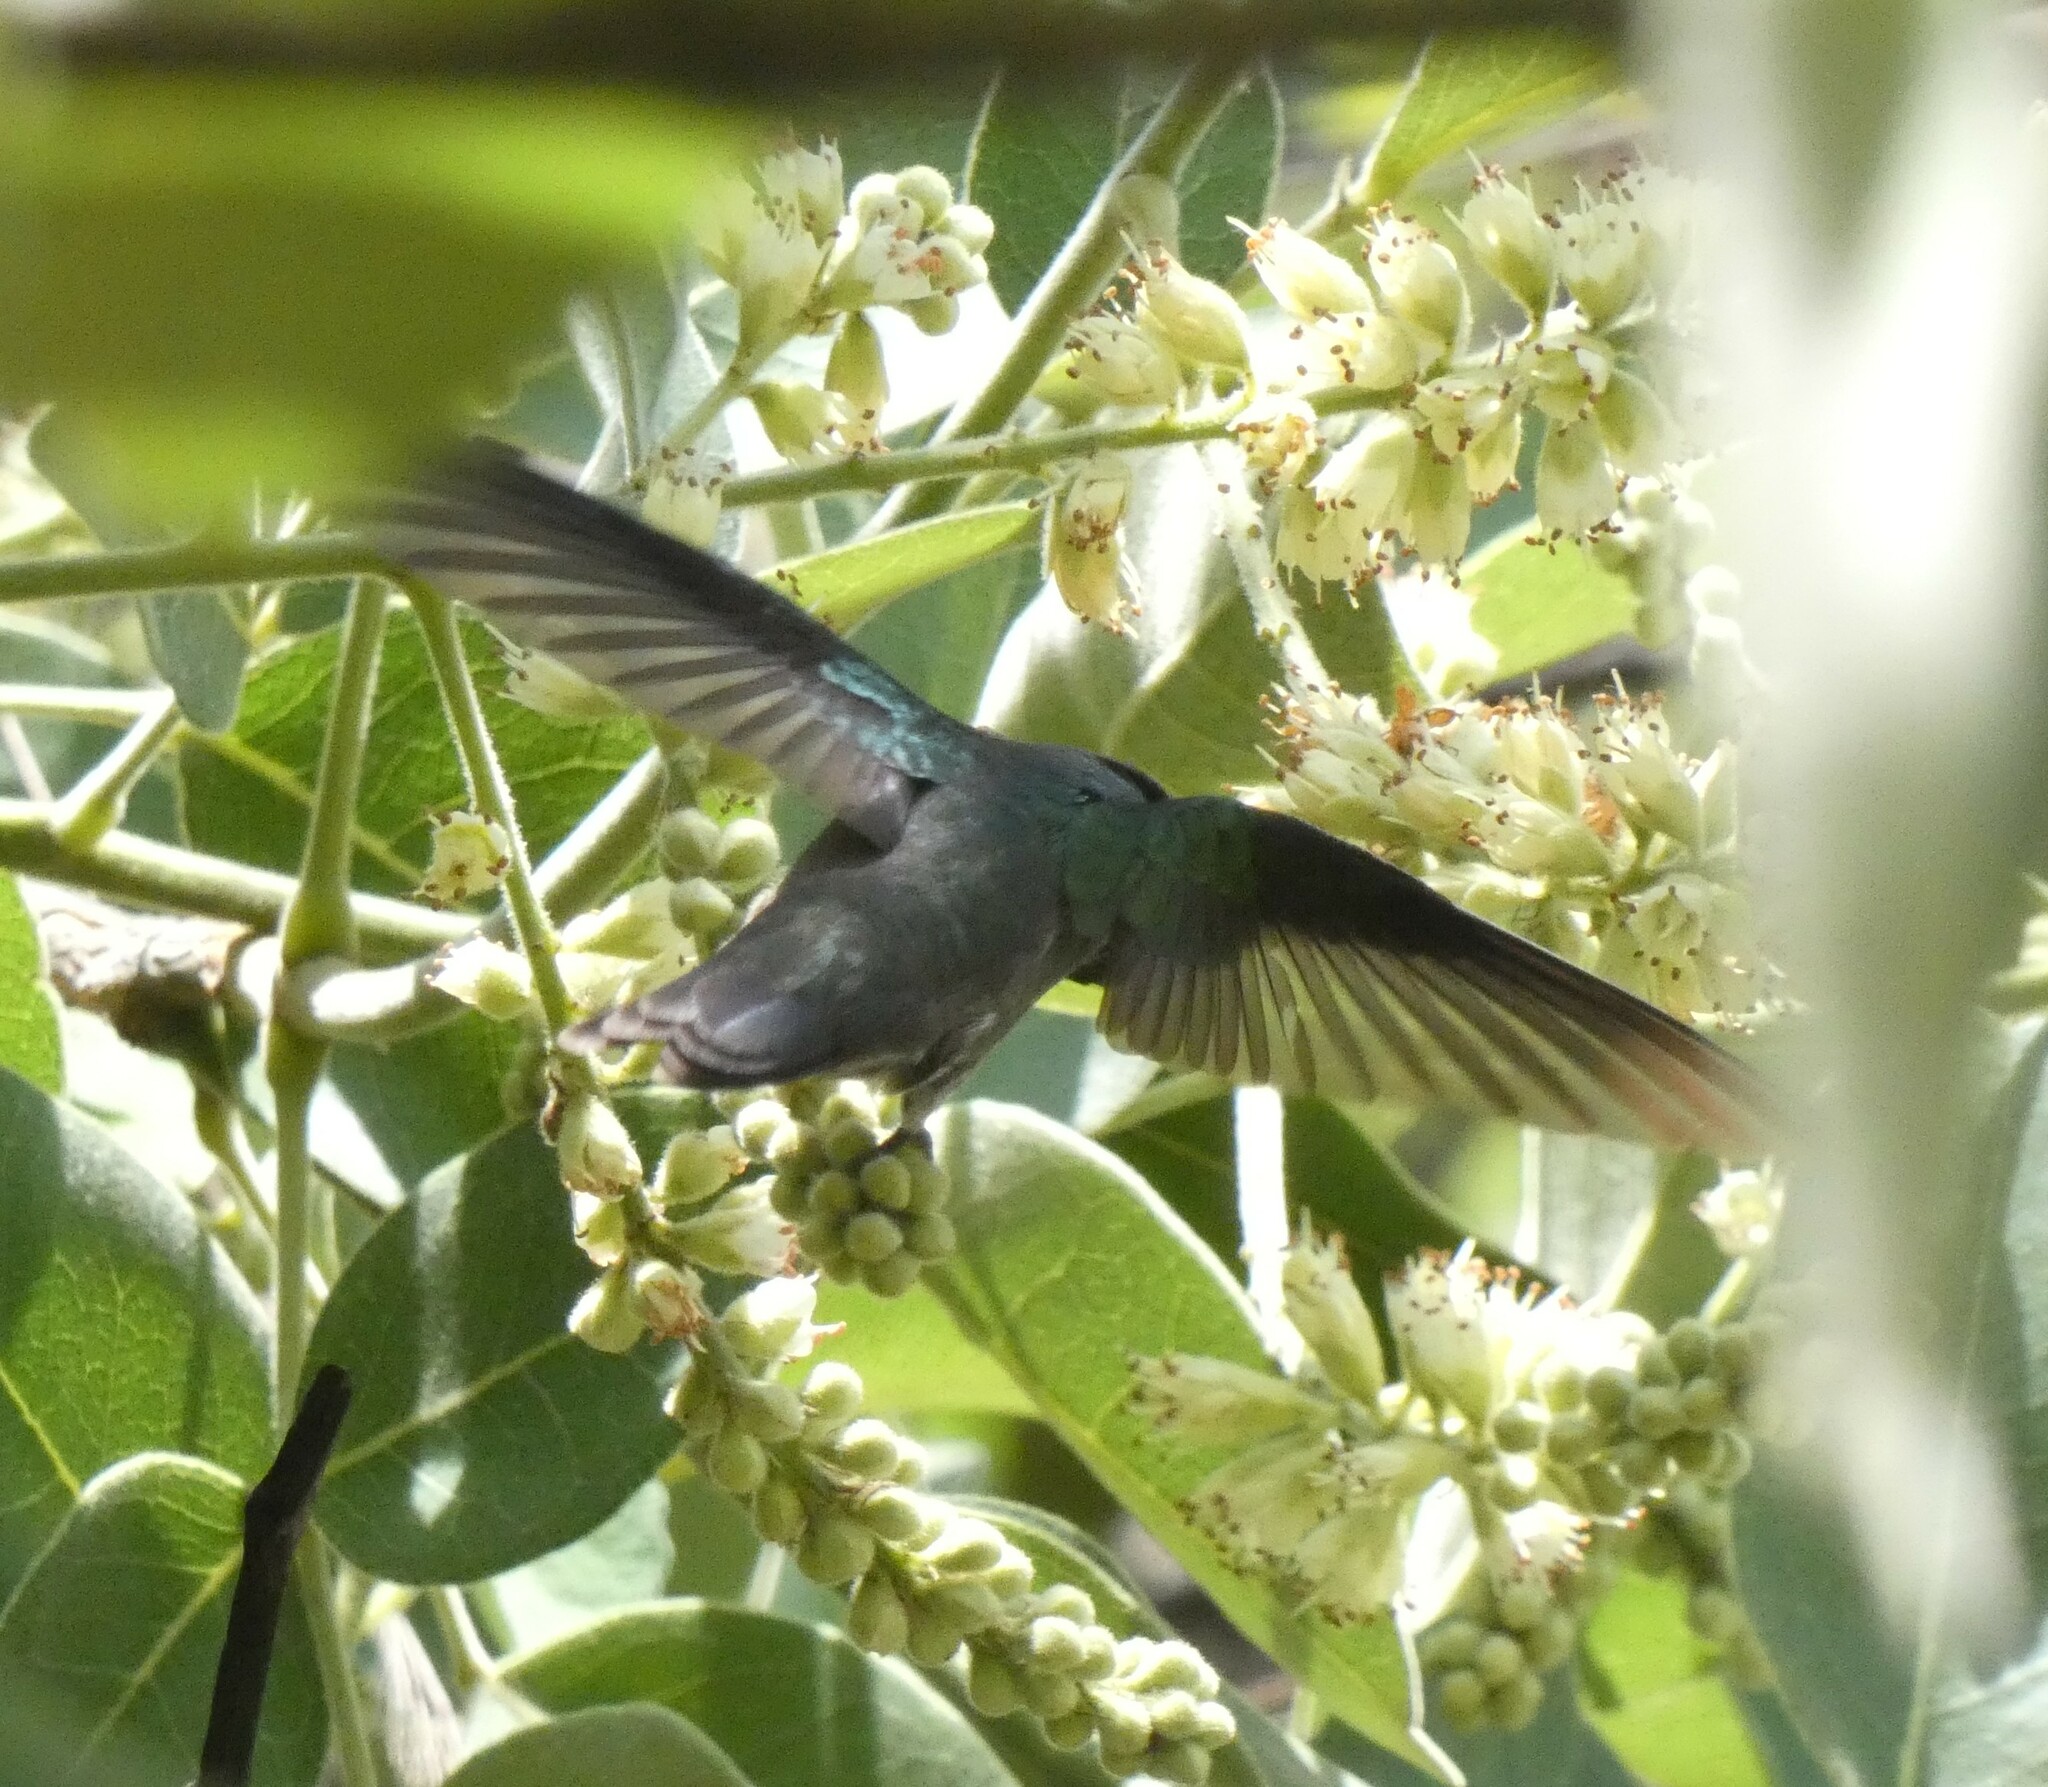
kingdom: Animalia
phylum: Chordata
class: Aves
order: Apodiformes
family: Trochilidae
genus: Chrysuronia
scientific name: Chrysuronia versicolor
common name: Versicolored emerald
